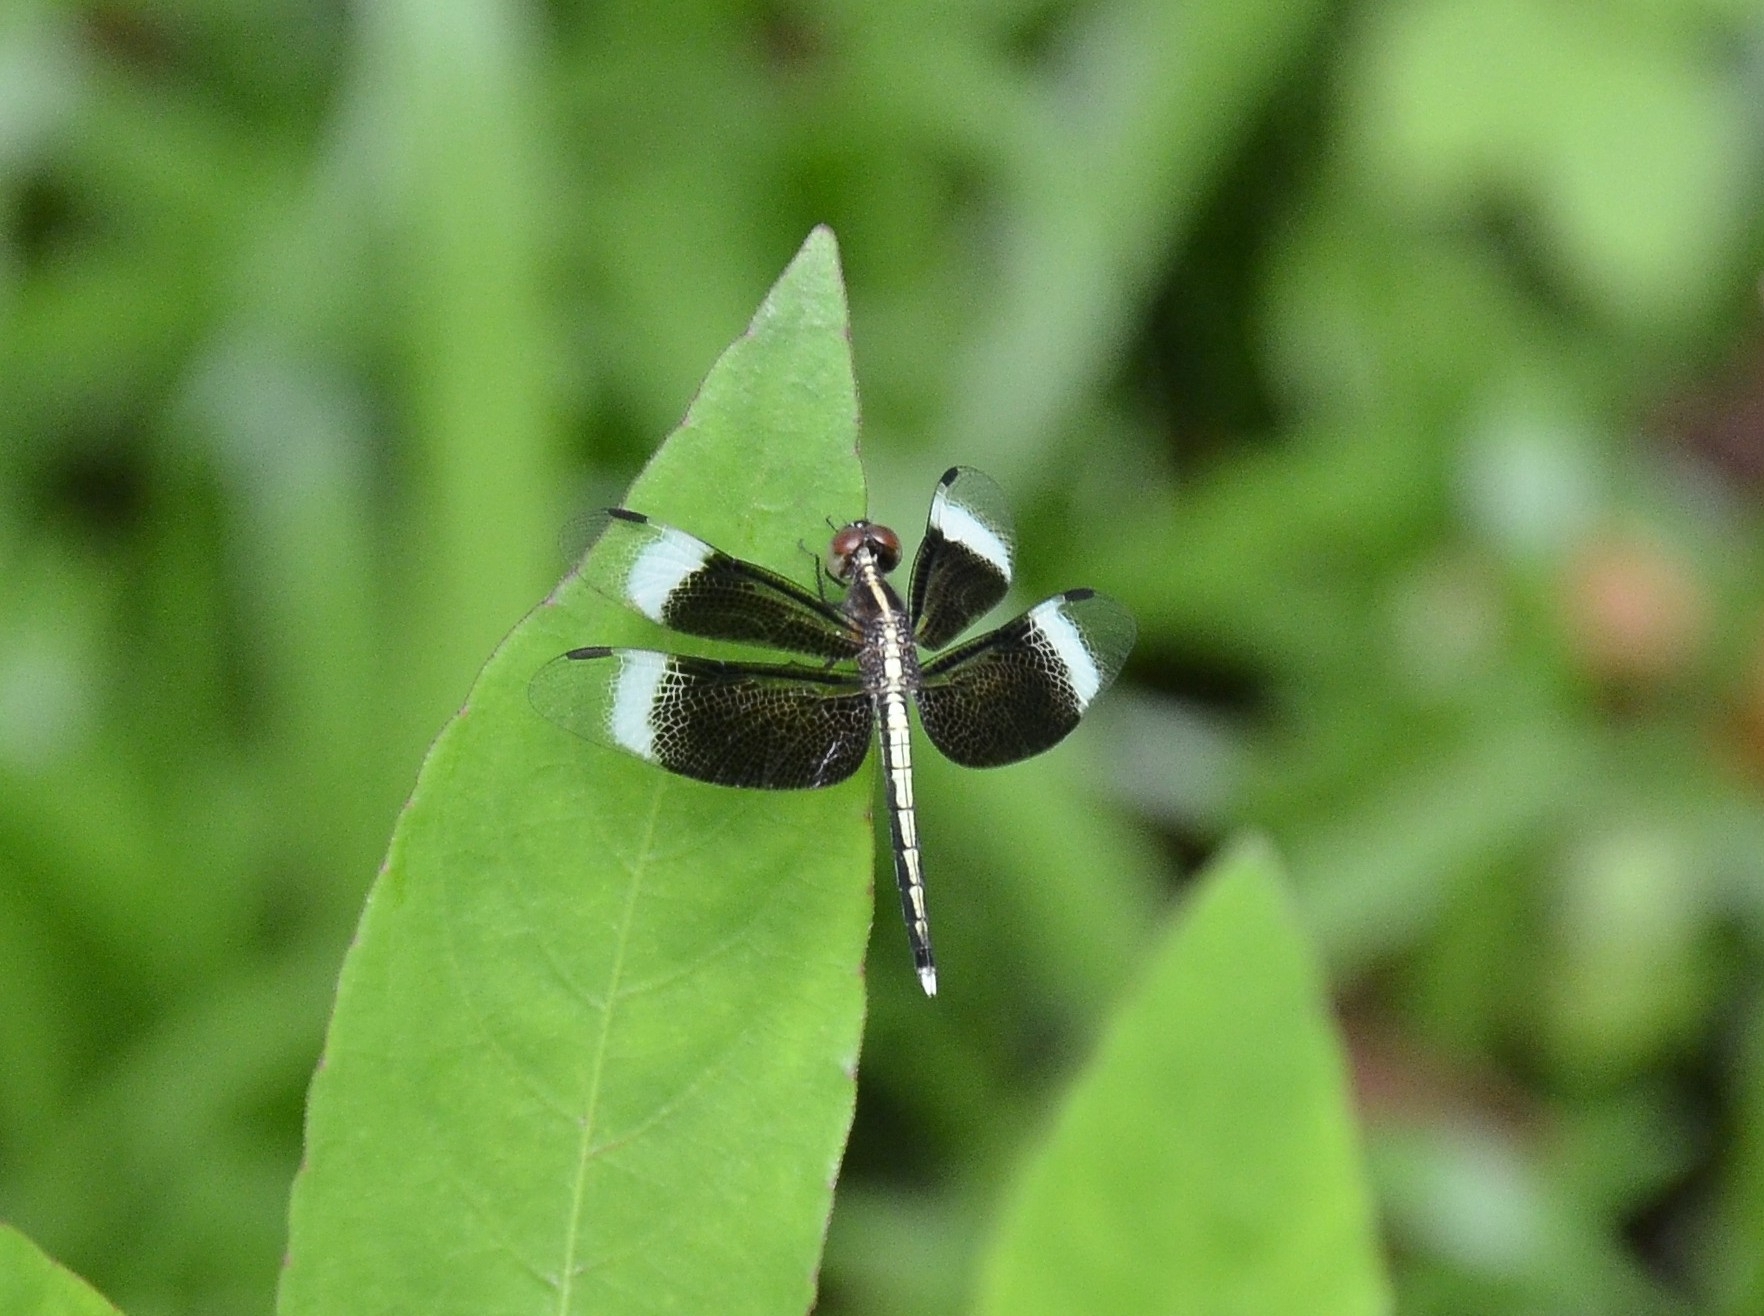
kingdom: Animalia
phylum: Arthropoda
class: Insecta
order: Odonata
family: Libellulidae
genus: Neurothemis
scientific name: Neurothemis tullia
